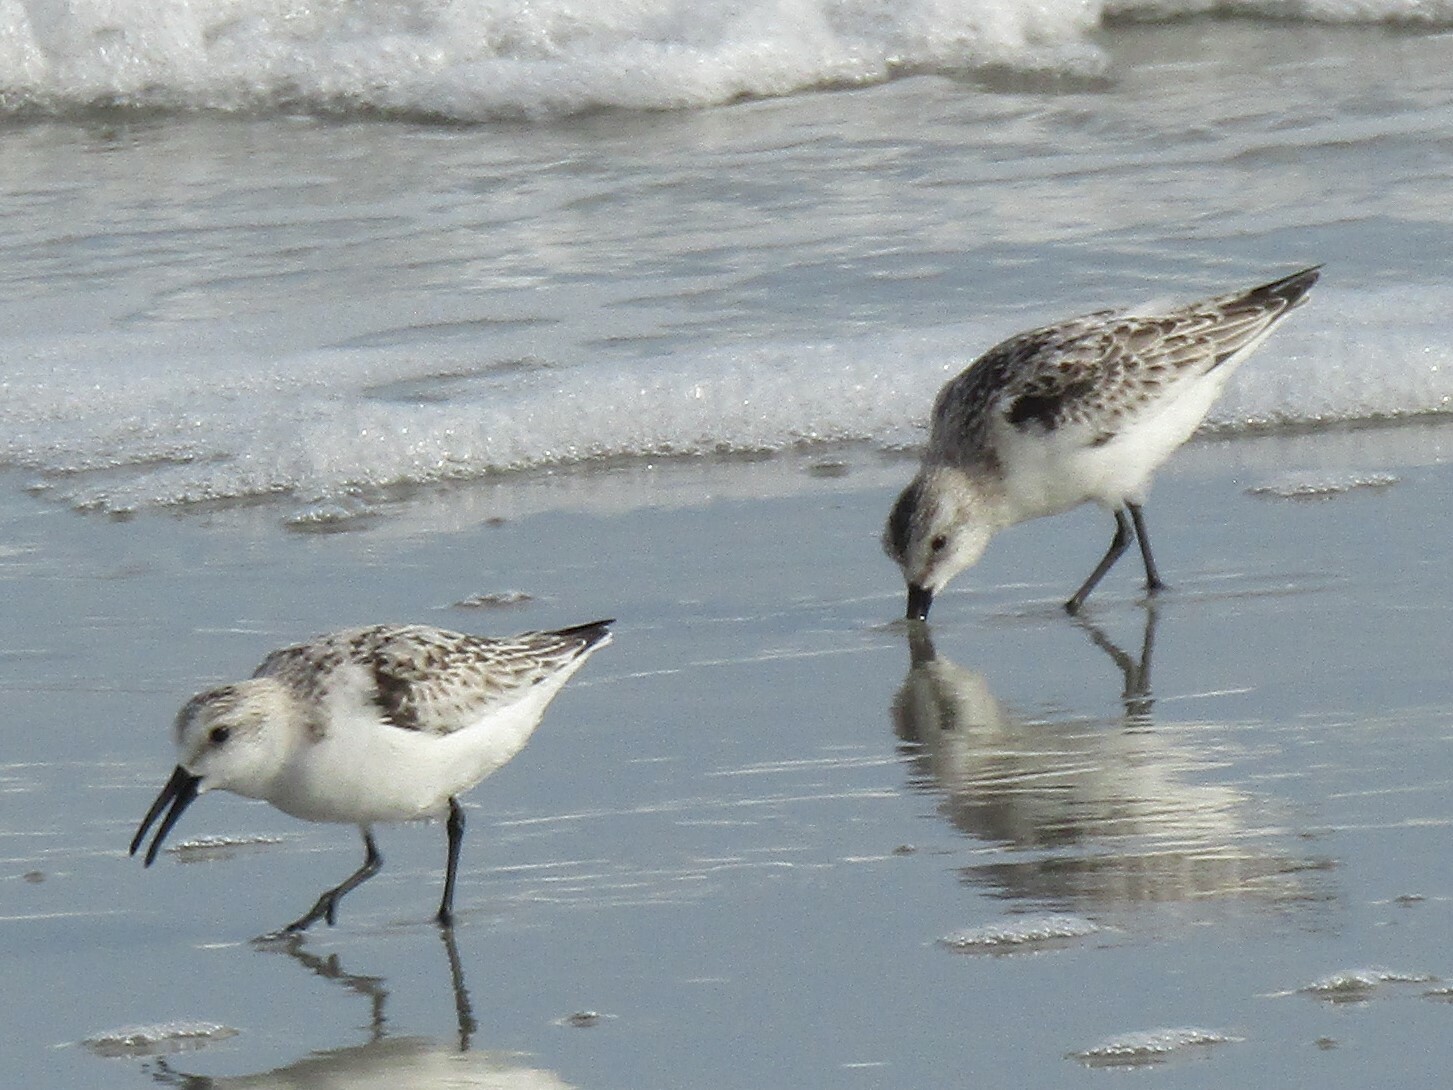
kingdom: Animalia
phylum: Chordata
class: Aves
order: Charadriiformes
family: Scolopacidae
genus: Calidris
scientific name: Calidris alba
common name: Sanderling
